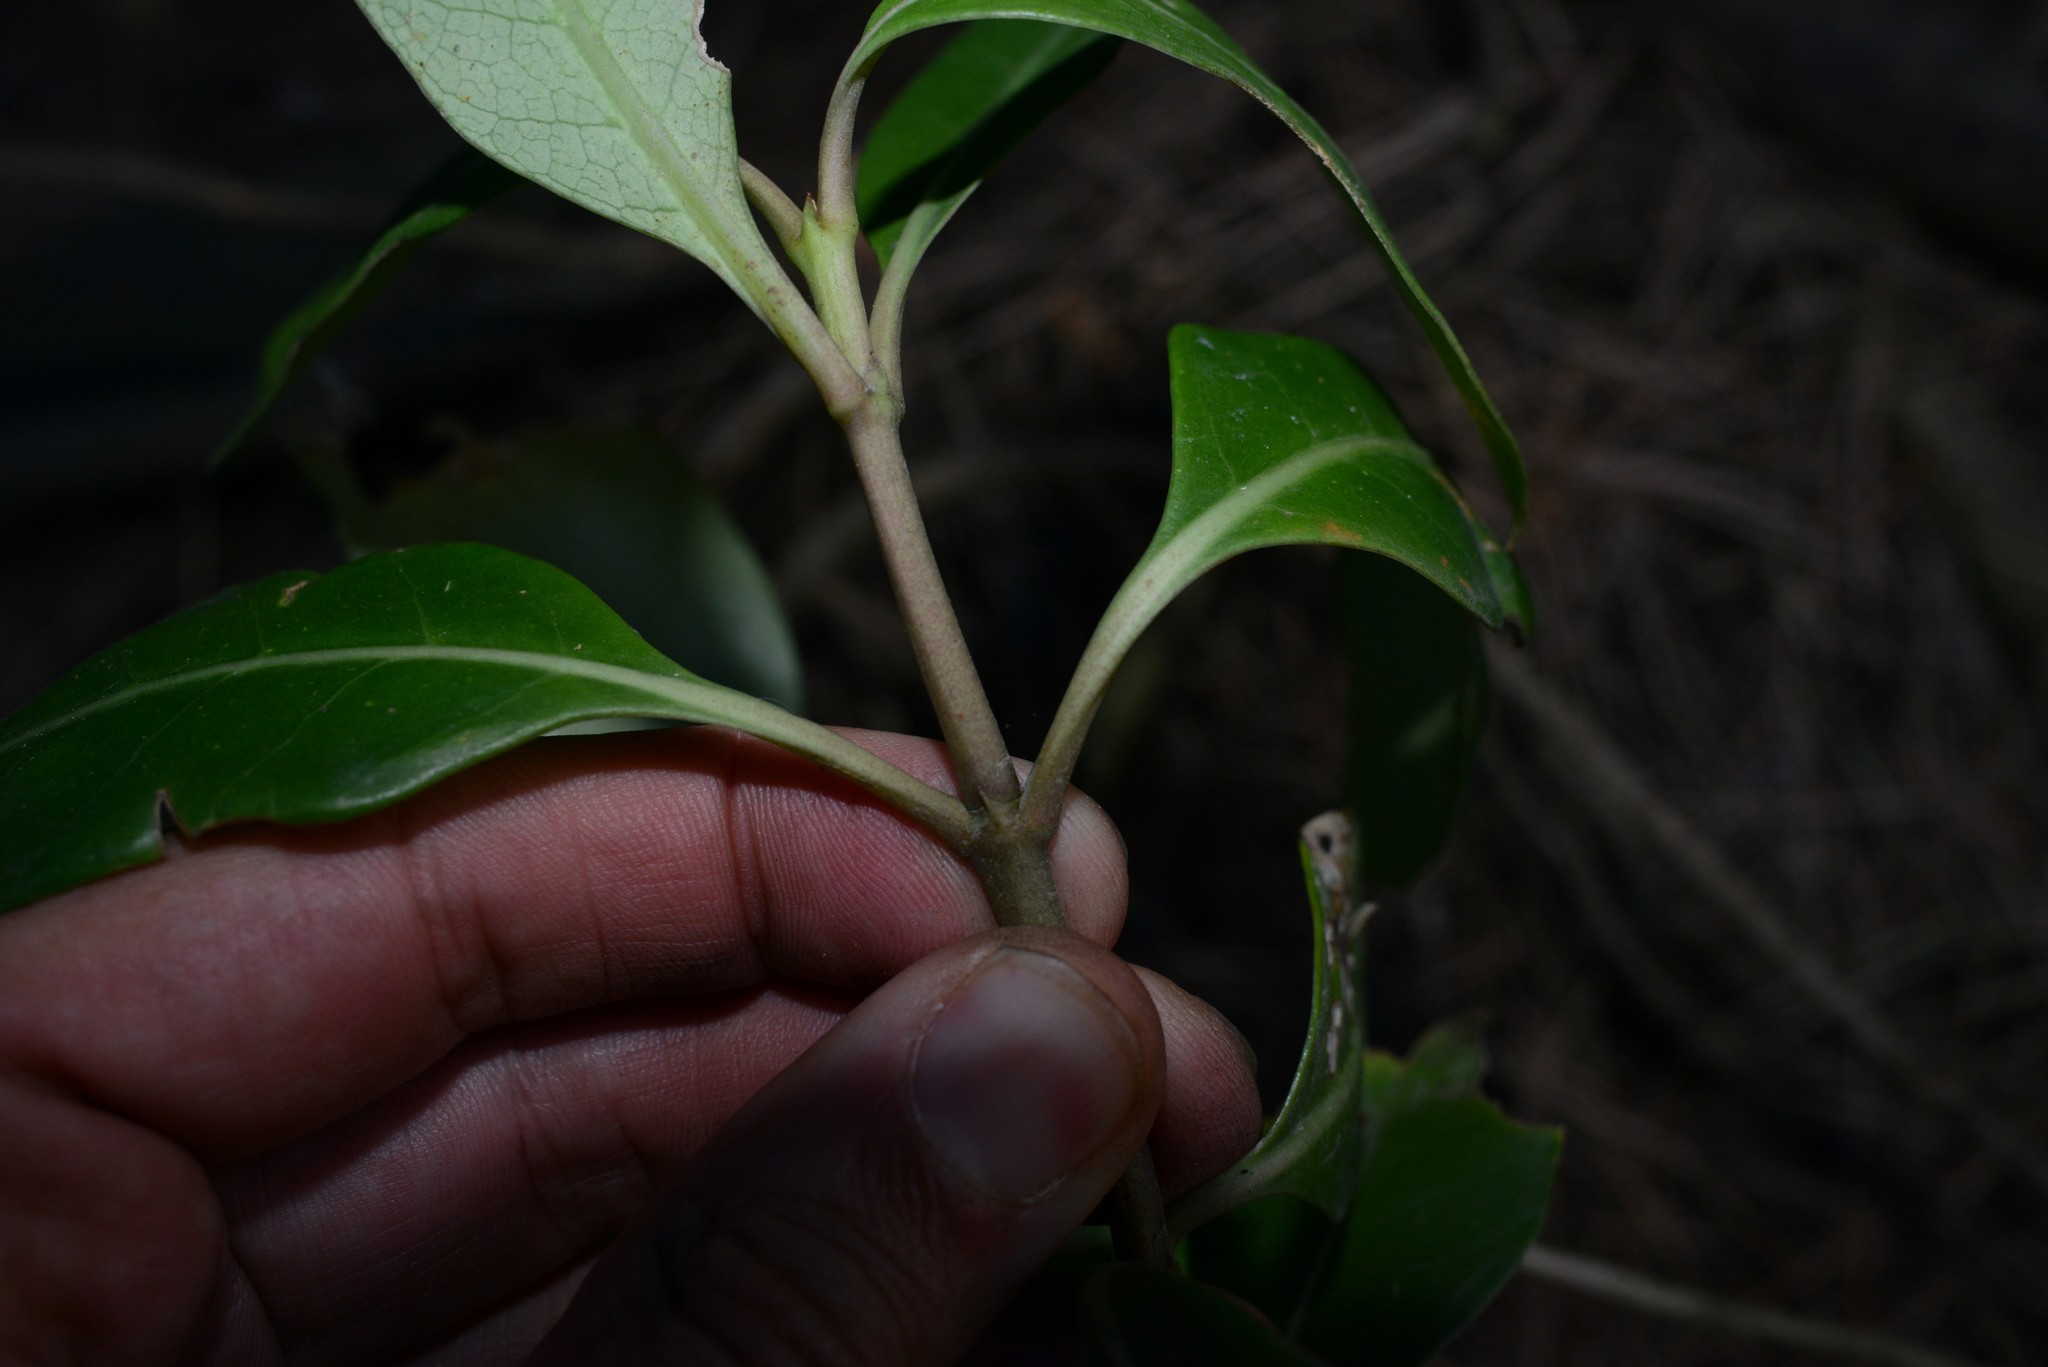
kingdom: Plantae
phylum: Tracheophyta
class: Magnoliopsida
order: Gentianales
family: Rubiaceae
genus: Coprosma
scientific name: Coprosma lucida
